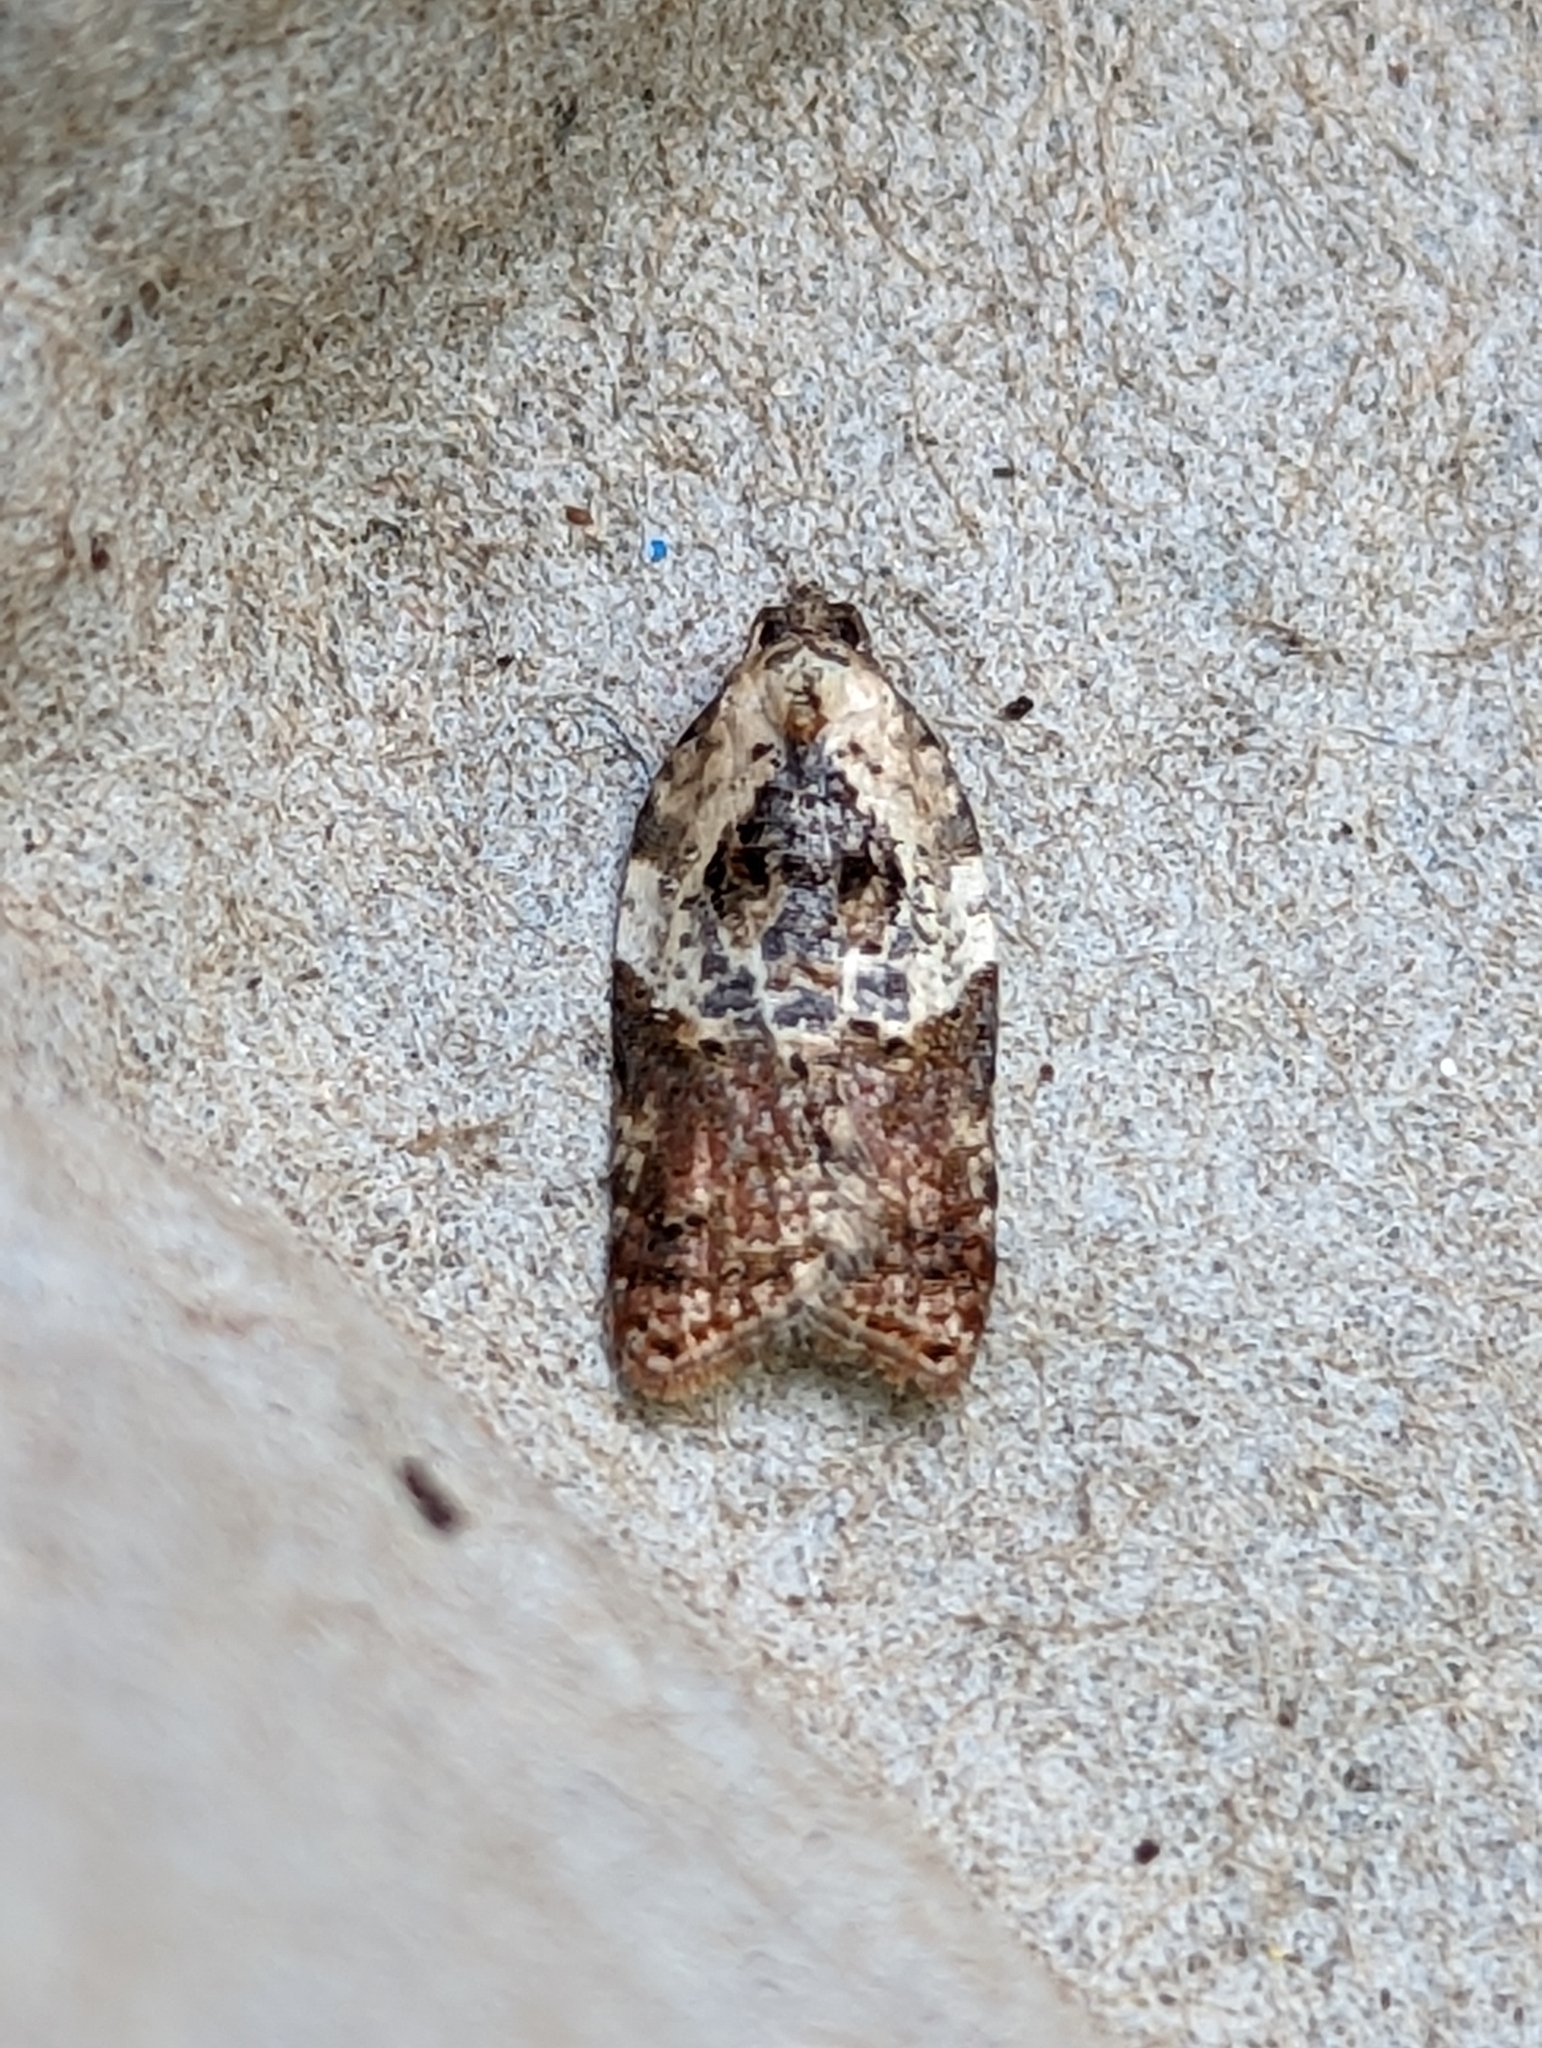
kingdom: Animalia
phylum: Arthropoda
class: Insecta
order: Lepidoptera
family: Tortricidae
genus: Acleris
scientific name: Acleris variegana
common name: Garden rose tortrix
